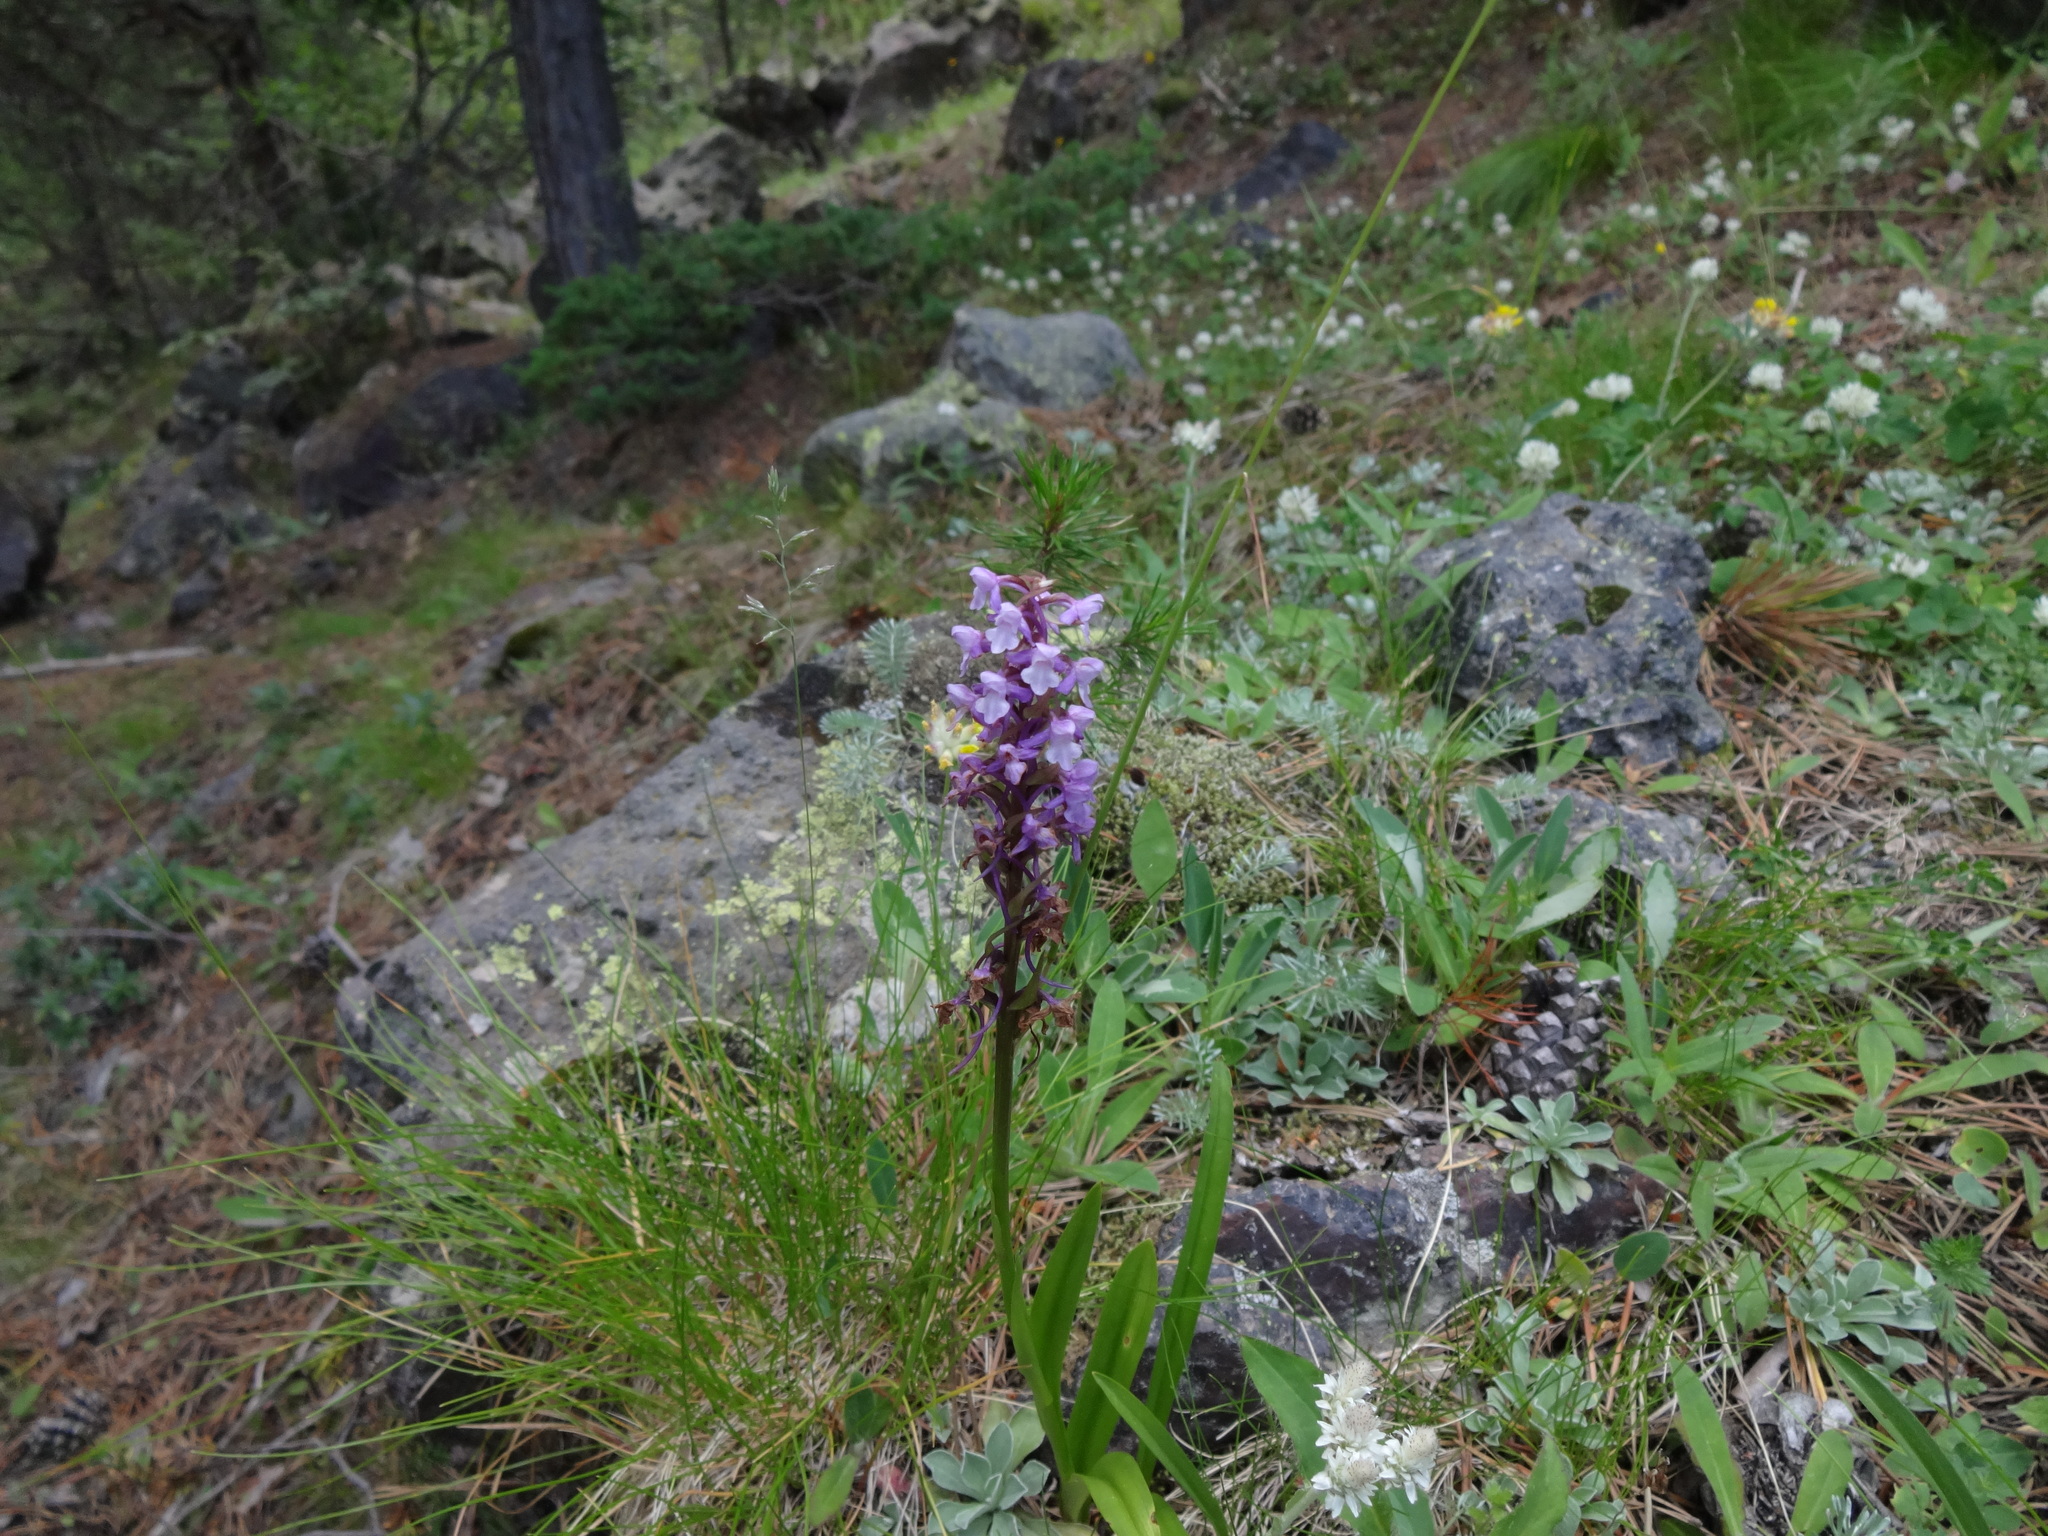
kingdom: Plantae
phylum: Tracheophyta
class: Liliopsida
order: Asparagales
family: Orchidaceae
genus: Gymnadenia
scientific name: Gymnadenia conopsea
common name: Fragrant orchid
